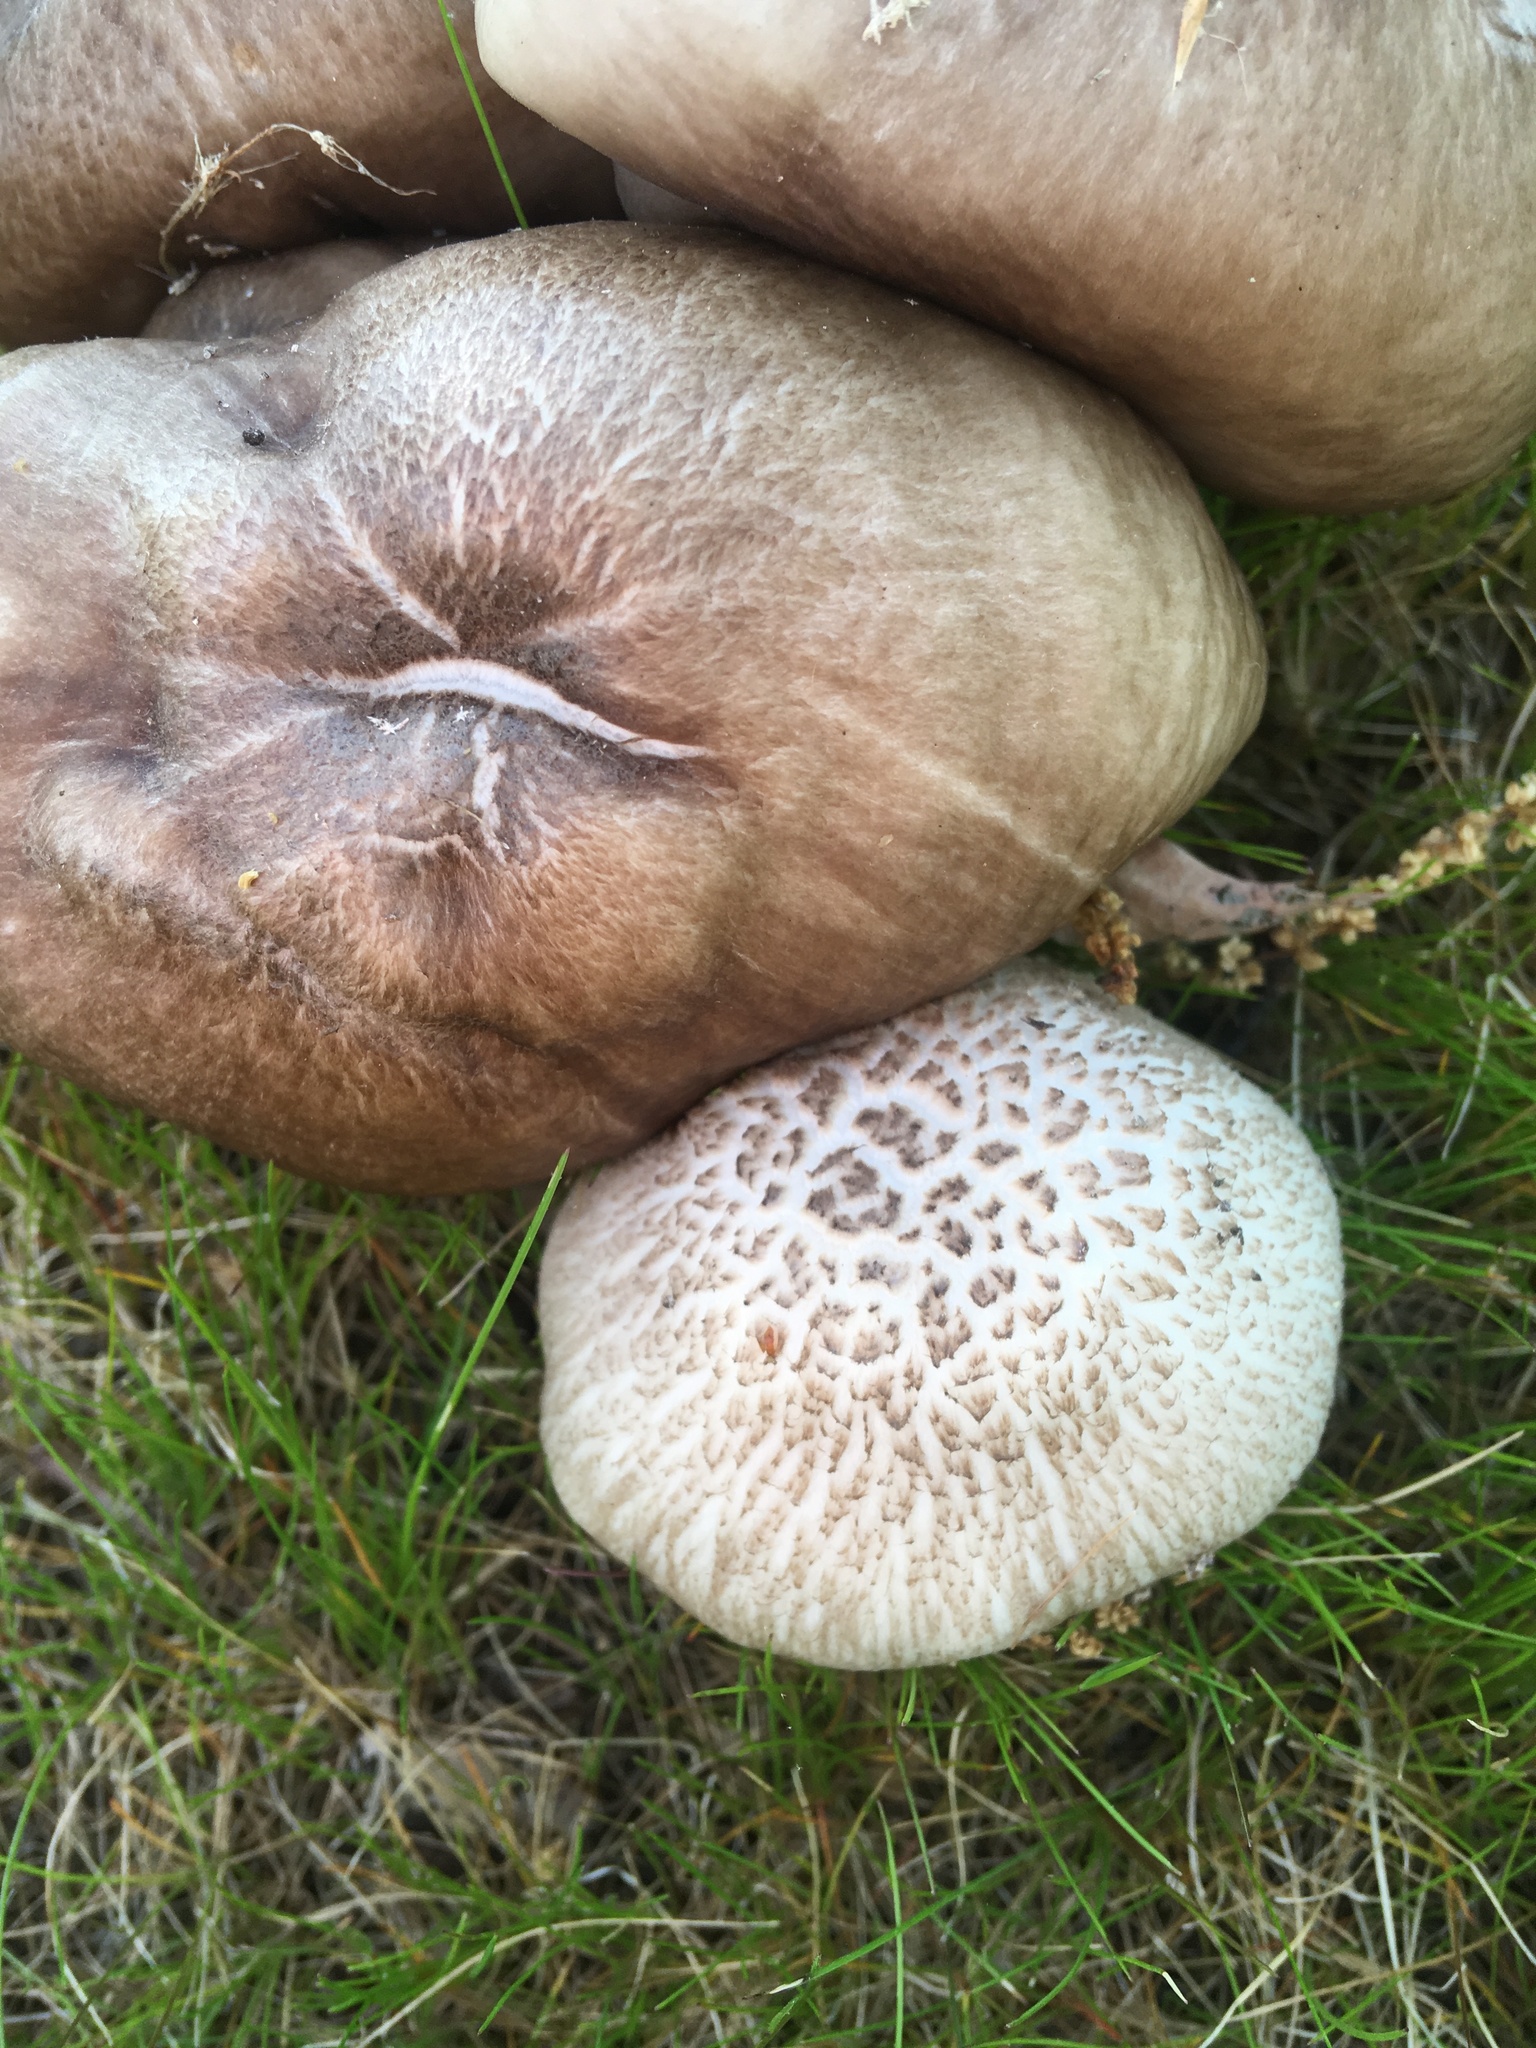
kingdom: Fungi
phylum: Basidiomycota
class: Agaricomycetes
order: Agaricales
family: Pluteaceae
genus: Pluteus
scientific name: Pluteus petasatus
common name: Scaly shield
